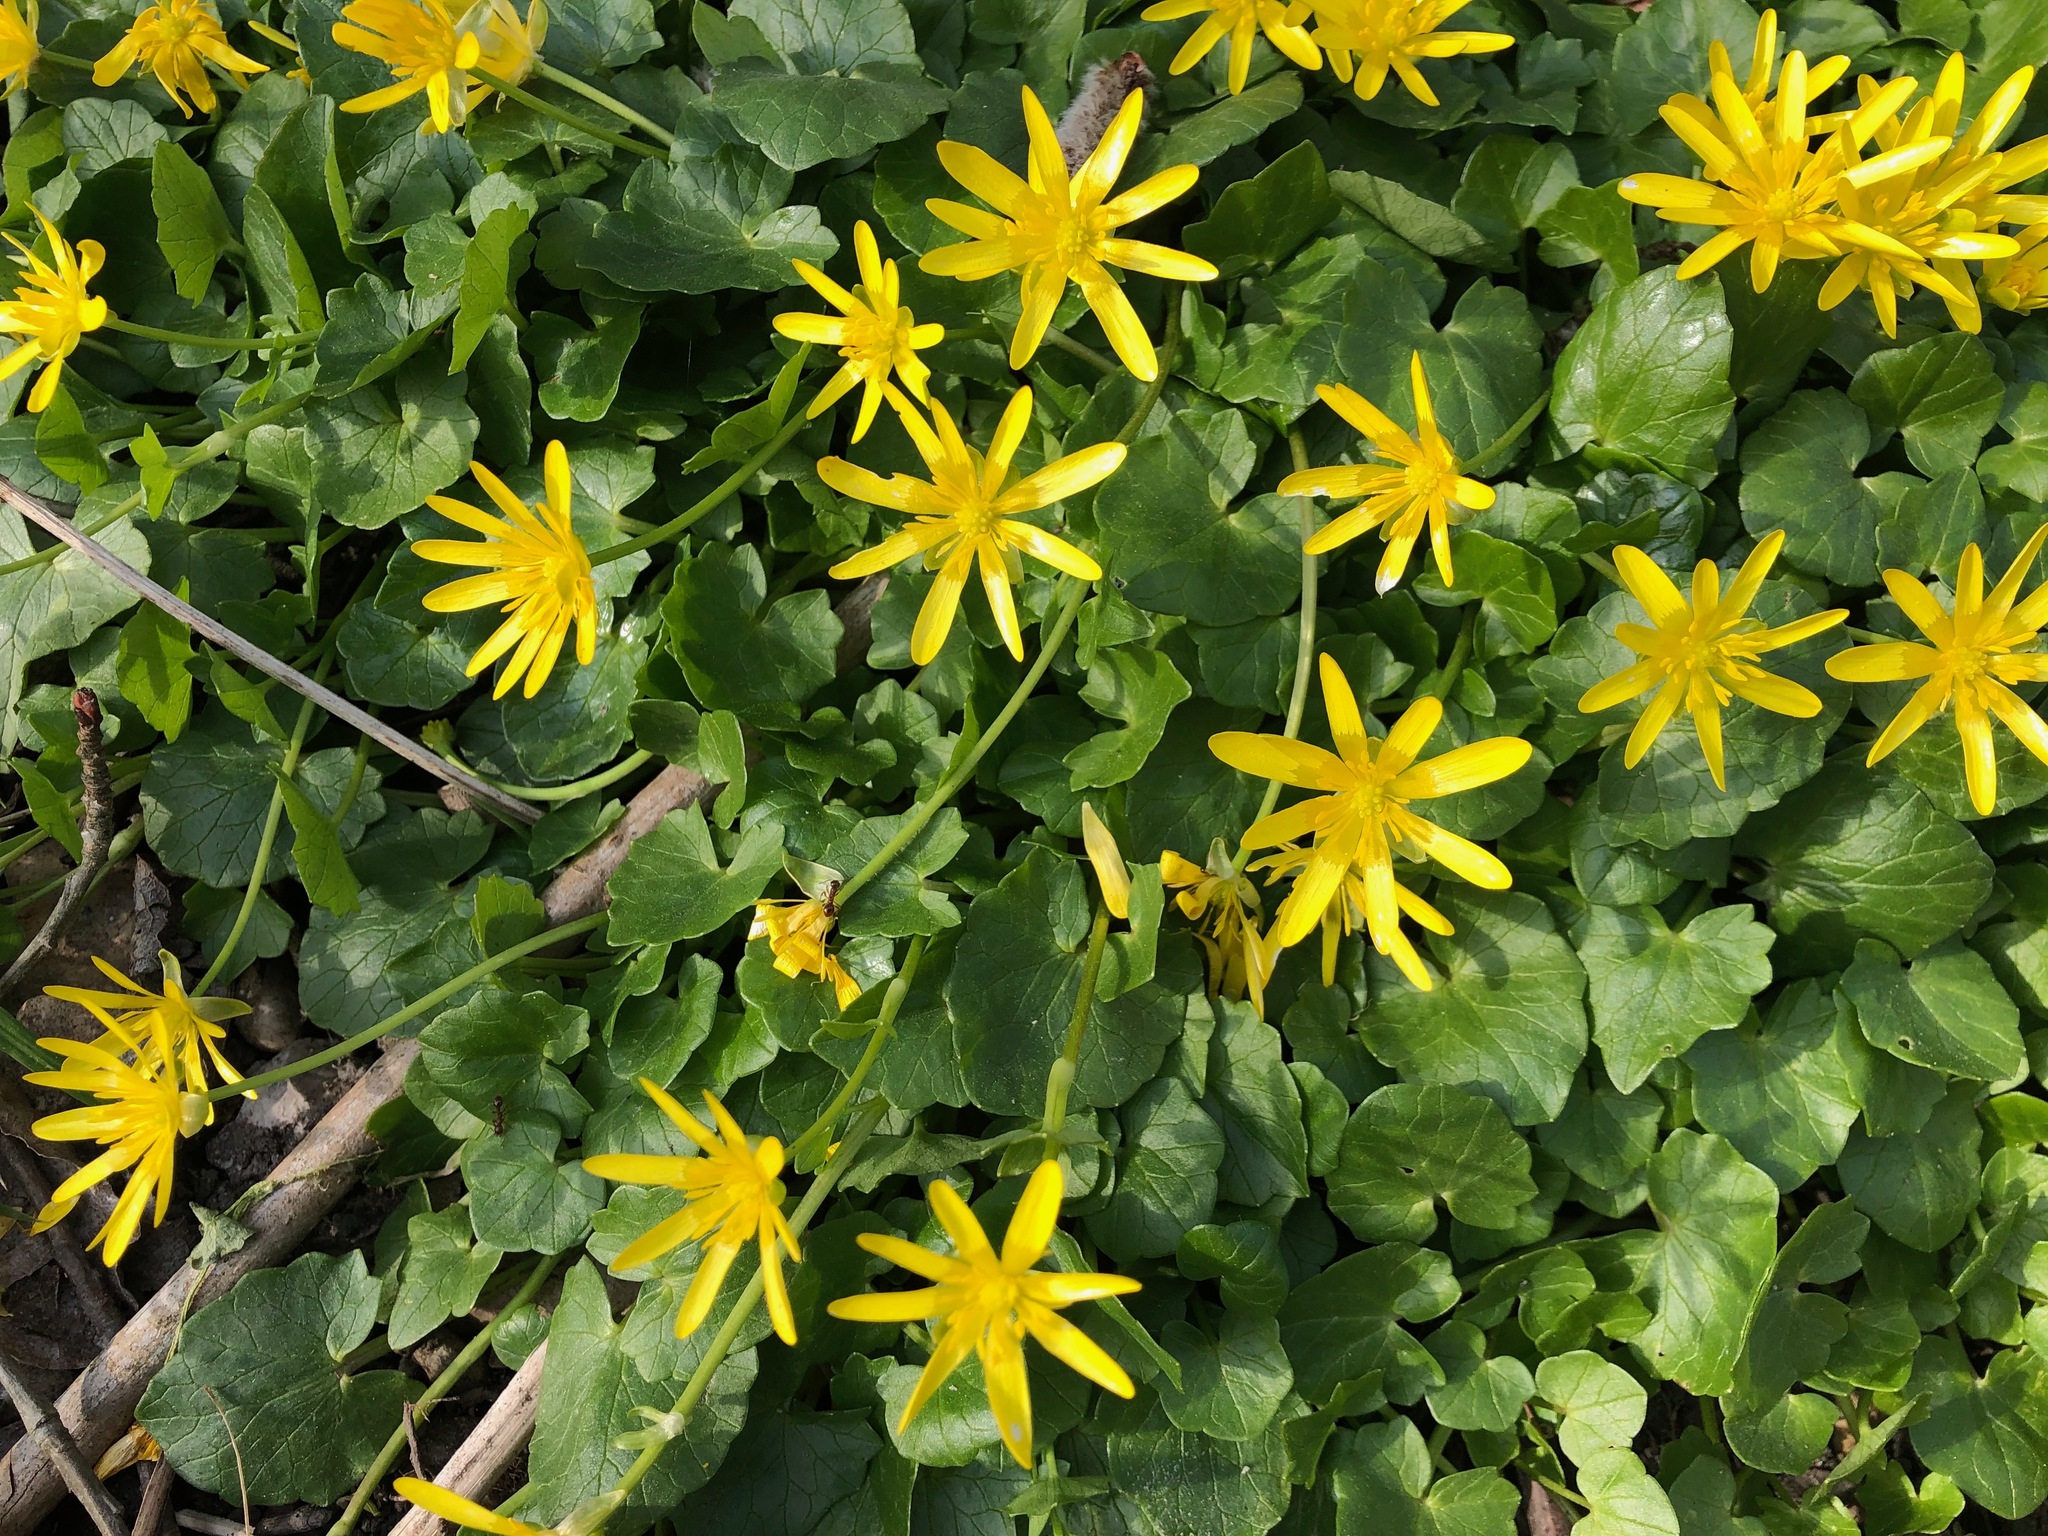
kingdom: Plantae
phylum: Tracheophyta
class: Magnoliopsida
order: Ranunculales
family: Ranunculaceae
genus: Ficaria
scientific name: Ficaria verna
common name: Lesser celandine
